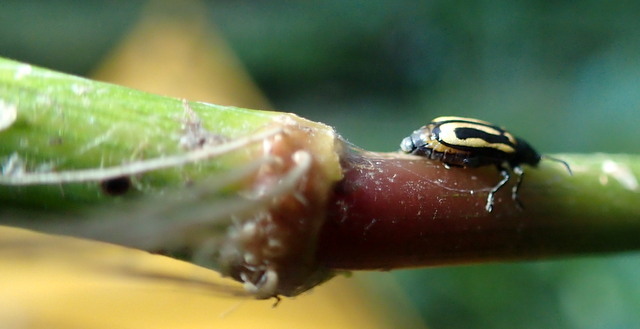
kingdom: Animalia
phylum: Arthropoda
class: Insecta
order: Coleoptera
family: Chrysomelidae
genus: Agasicles
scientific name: Agasicles hygrophila
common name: Alligatorweed flea beetle
